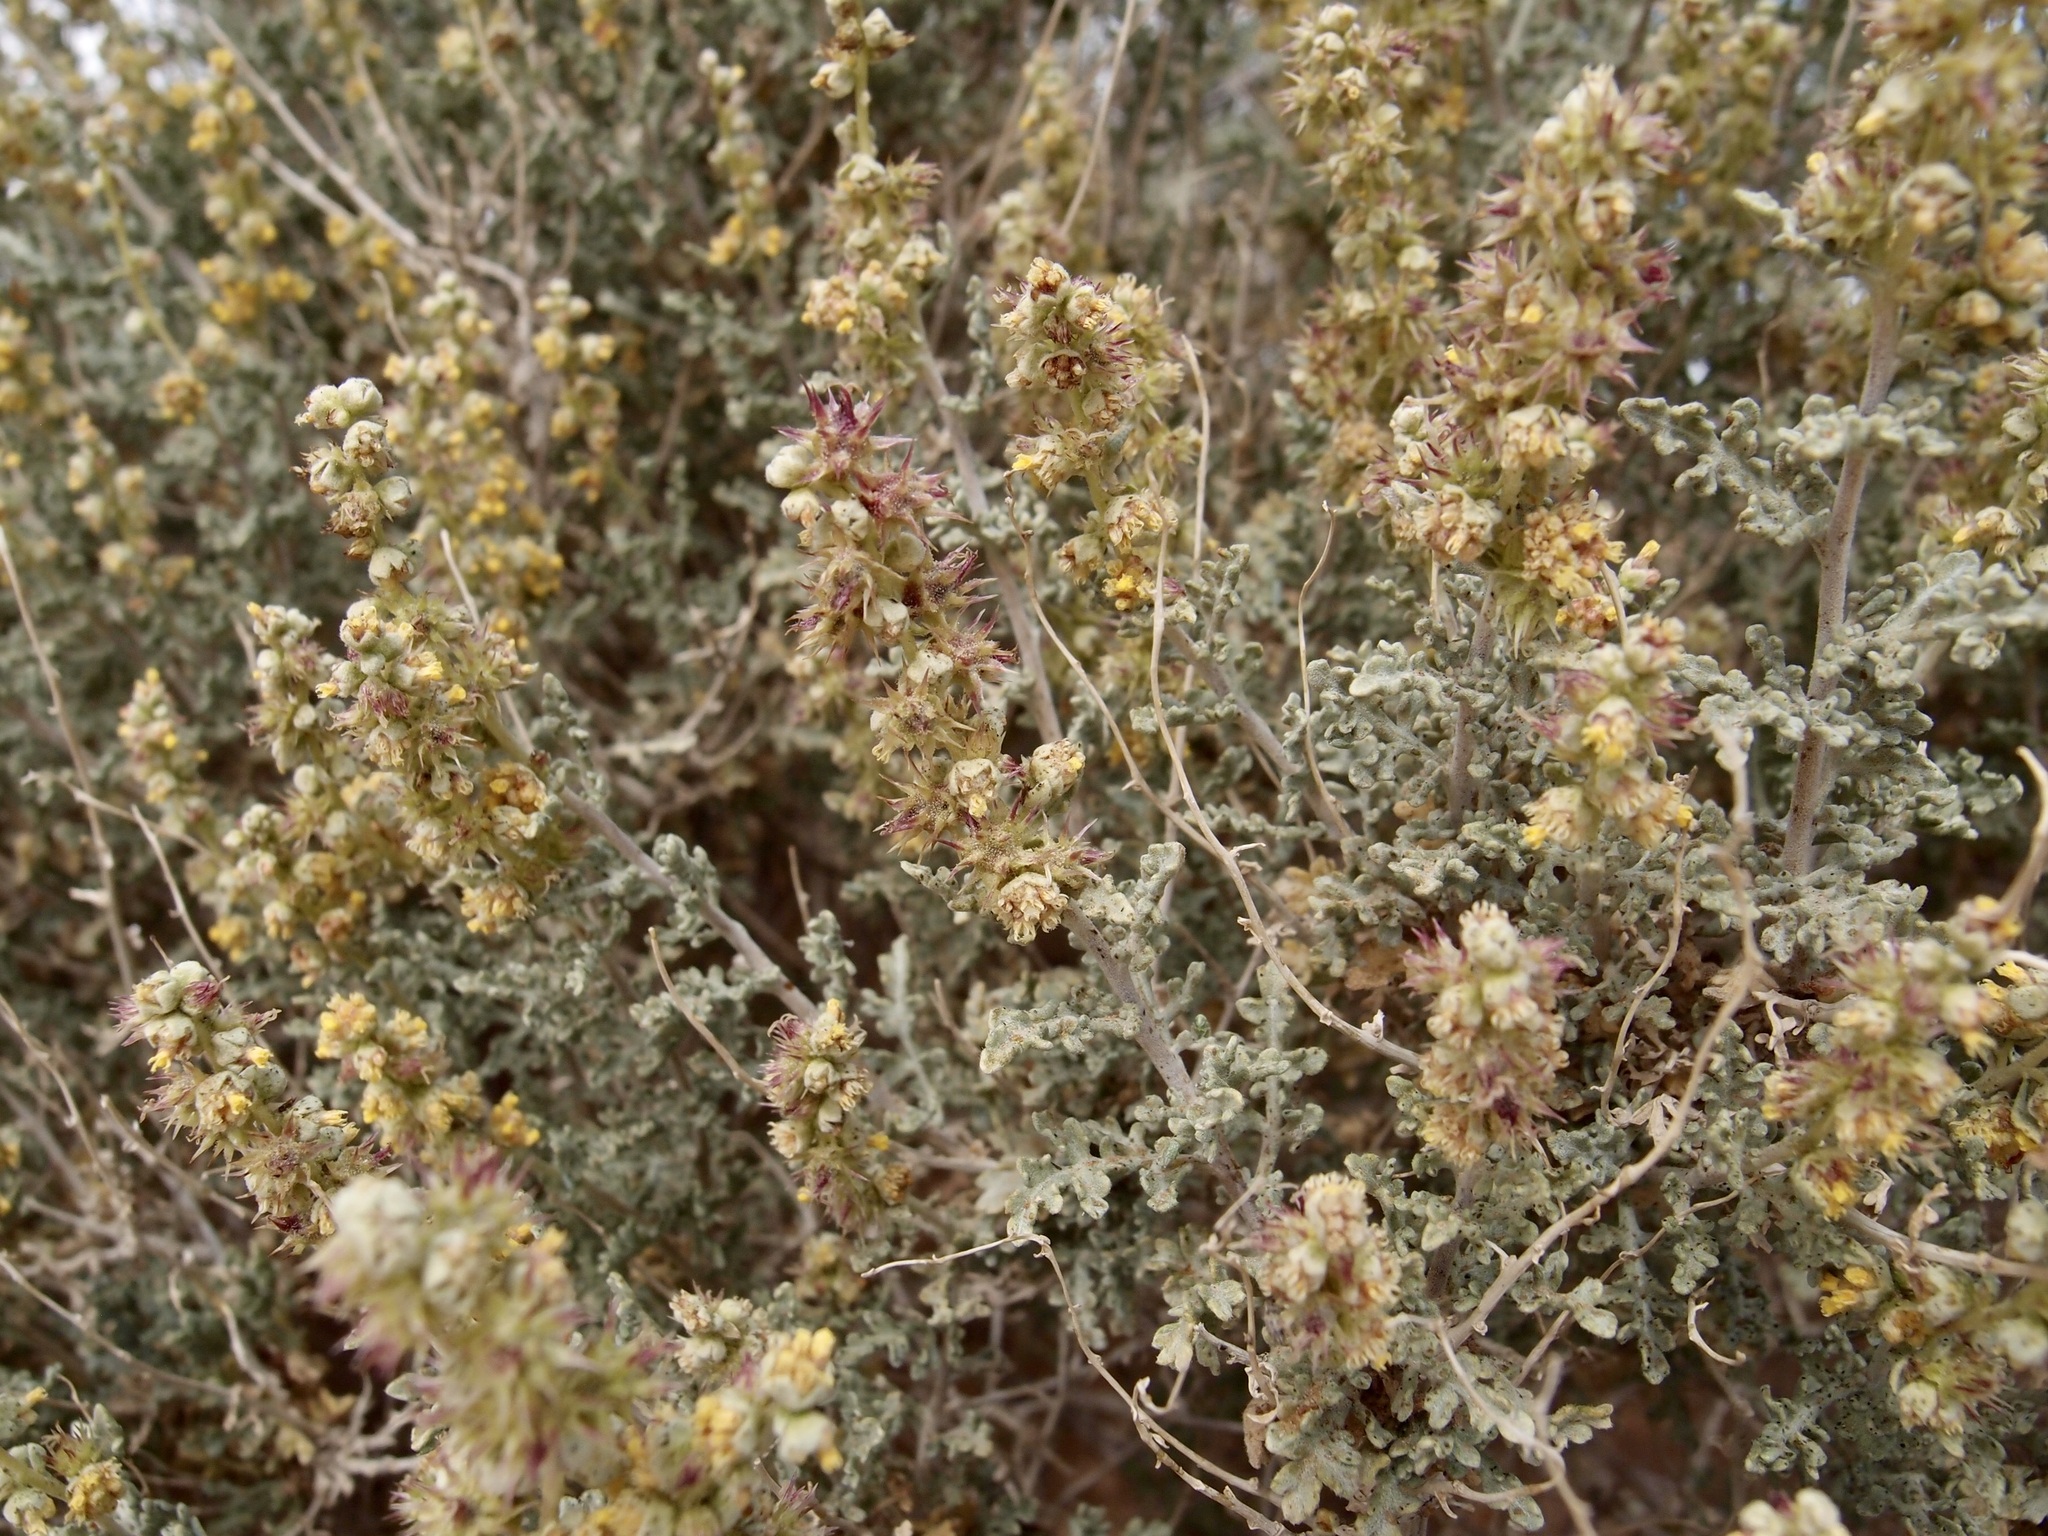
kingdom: Plantae
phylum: Tracheophyta
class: Magnoliopsida
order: Asterales
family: Asteraceae
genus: Ambrosia
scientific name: Ambrosia dumosa
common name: Bur-sage
